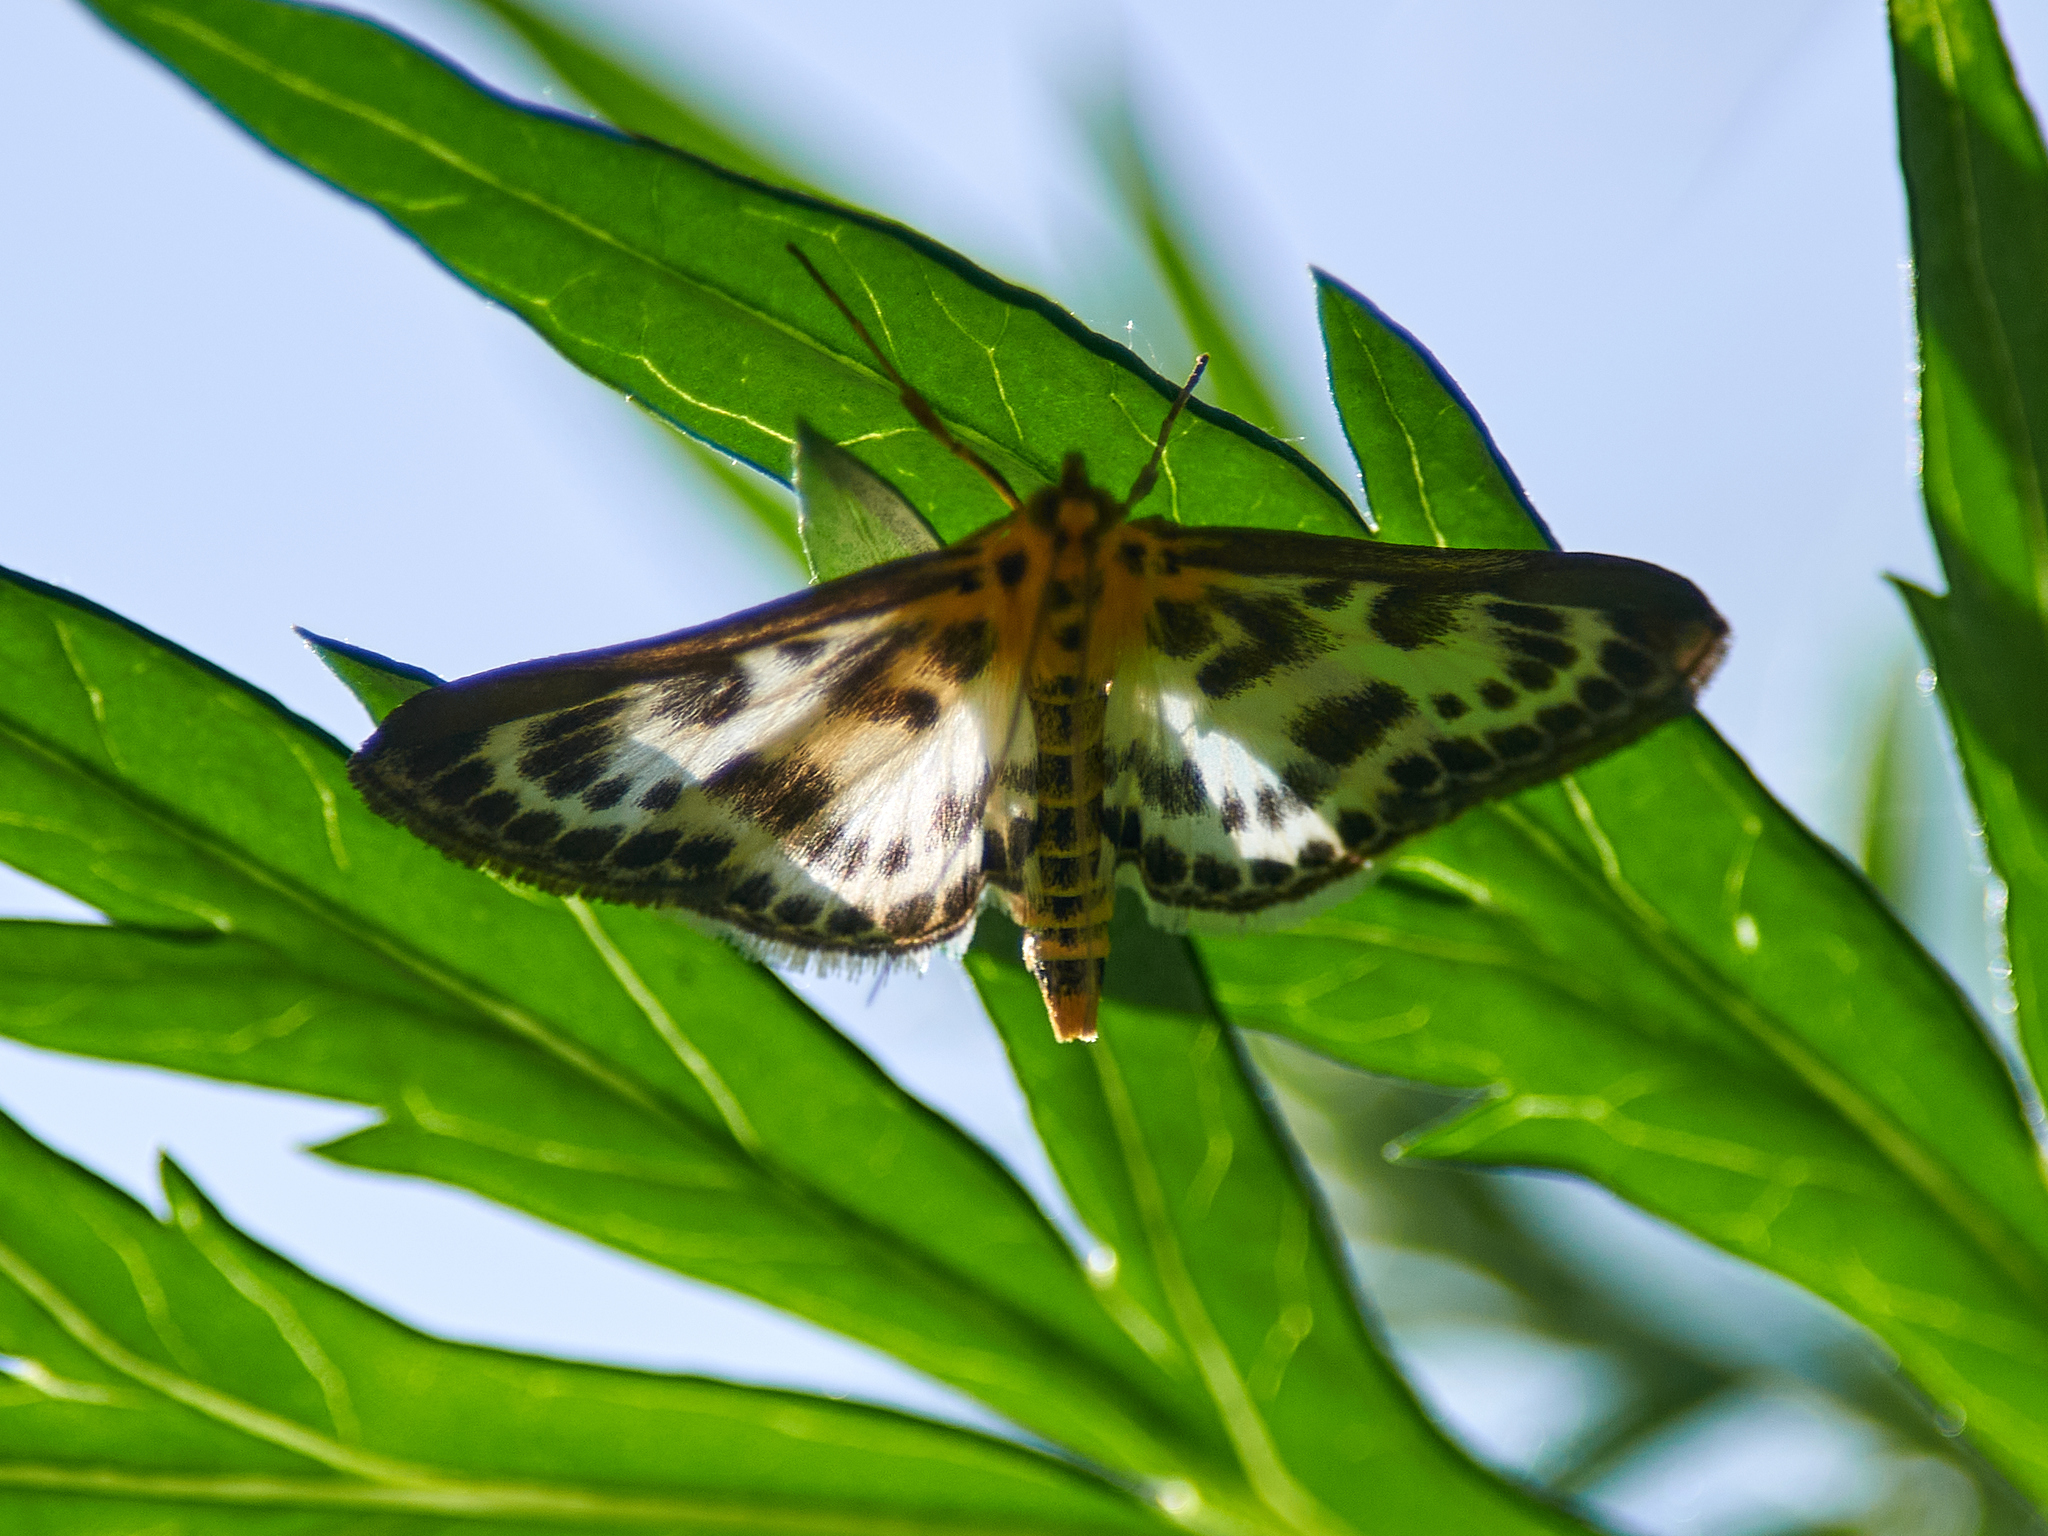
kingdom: Animalia
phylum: Arthropoda
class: Insecta
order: Lepidoptera
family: Crambidae
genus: Anania
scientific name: Anania hortulata
